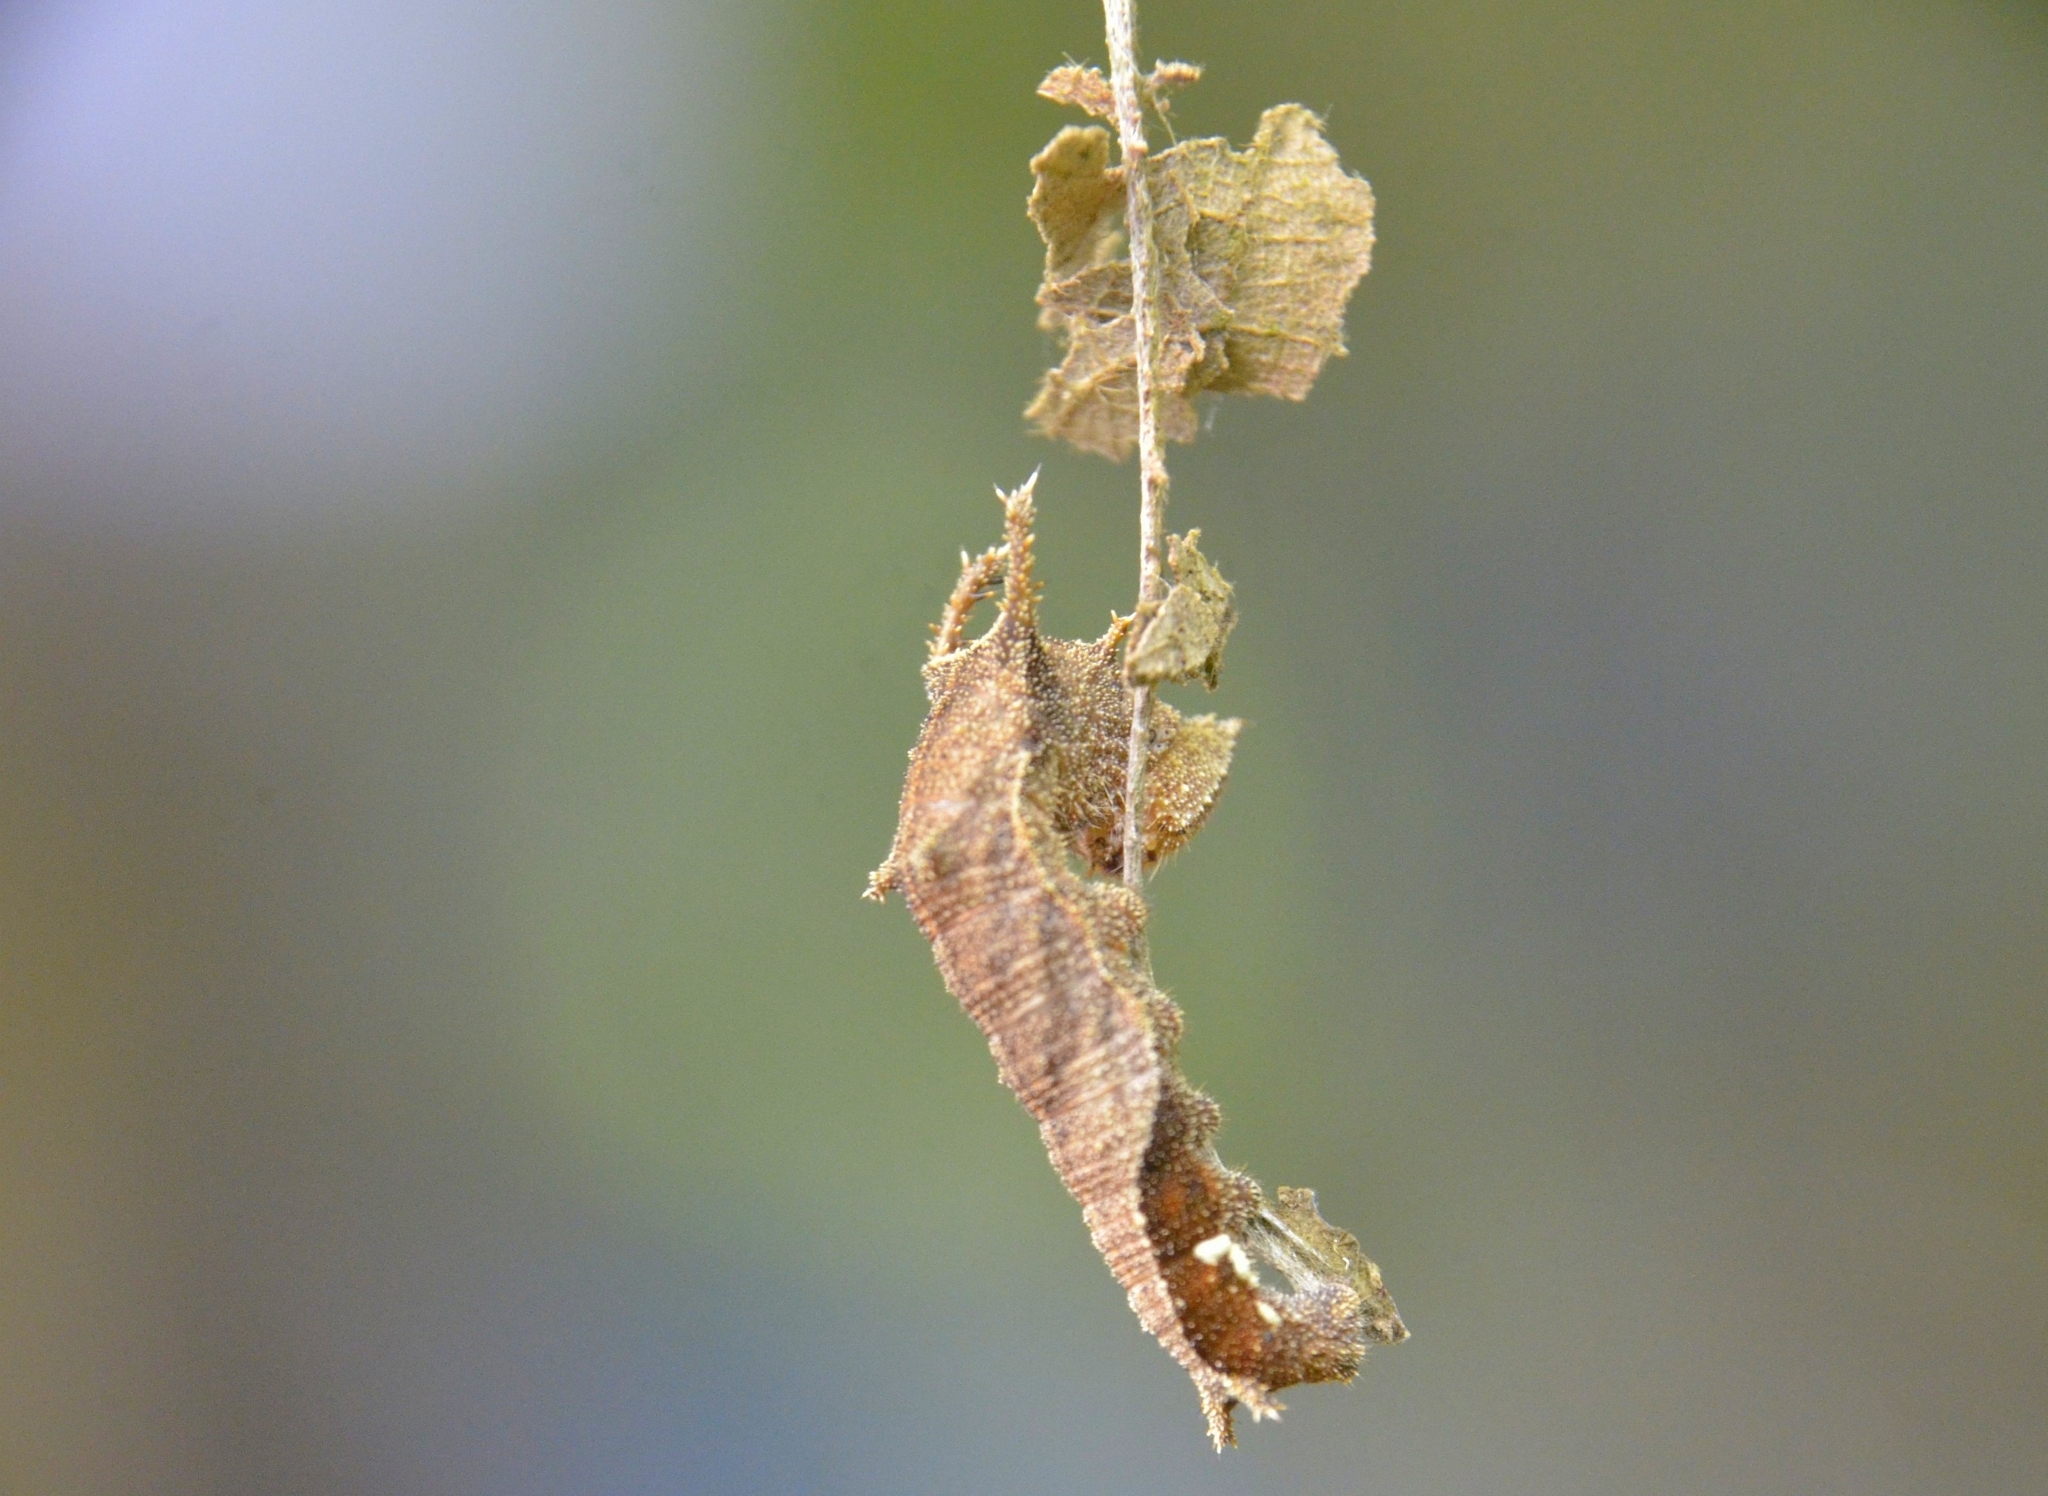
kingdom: Animalia
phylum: Arthropoda
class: Insecta
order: Lepidoptera
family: Nymphalidae
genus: Neptis
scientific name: Neptis jumbah
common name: Chestnut-streaked sailer
